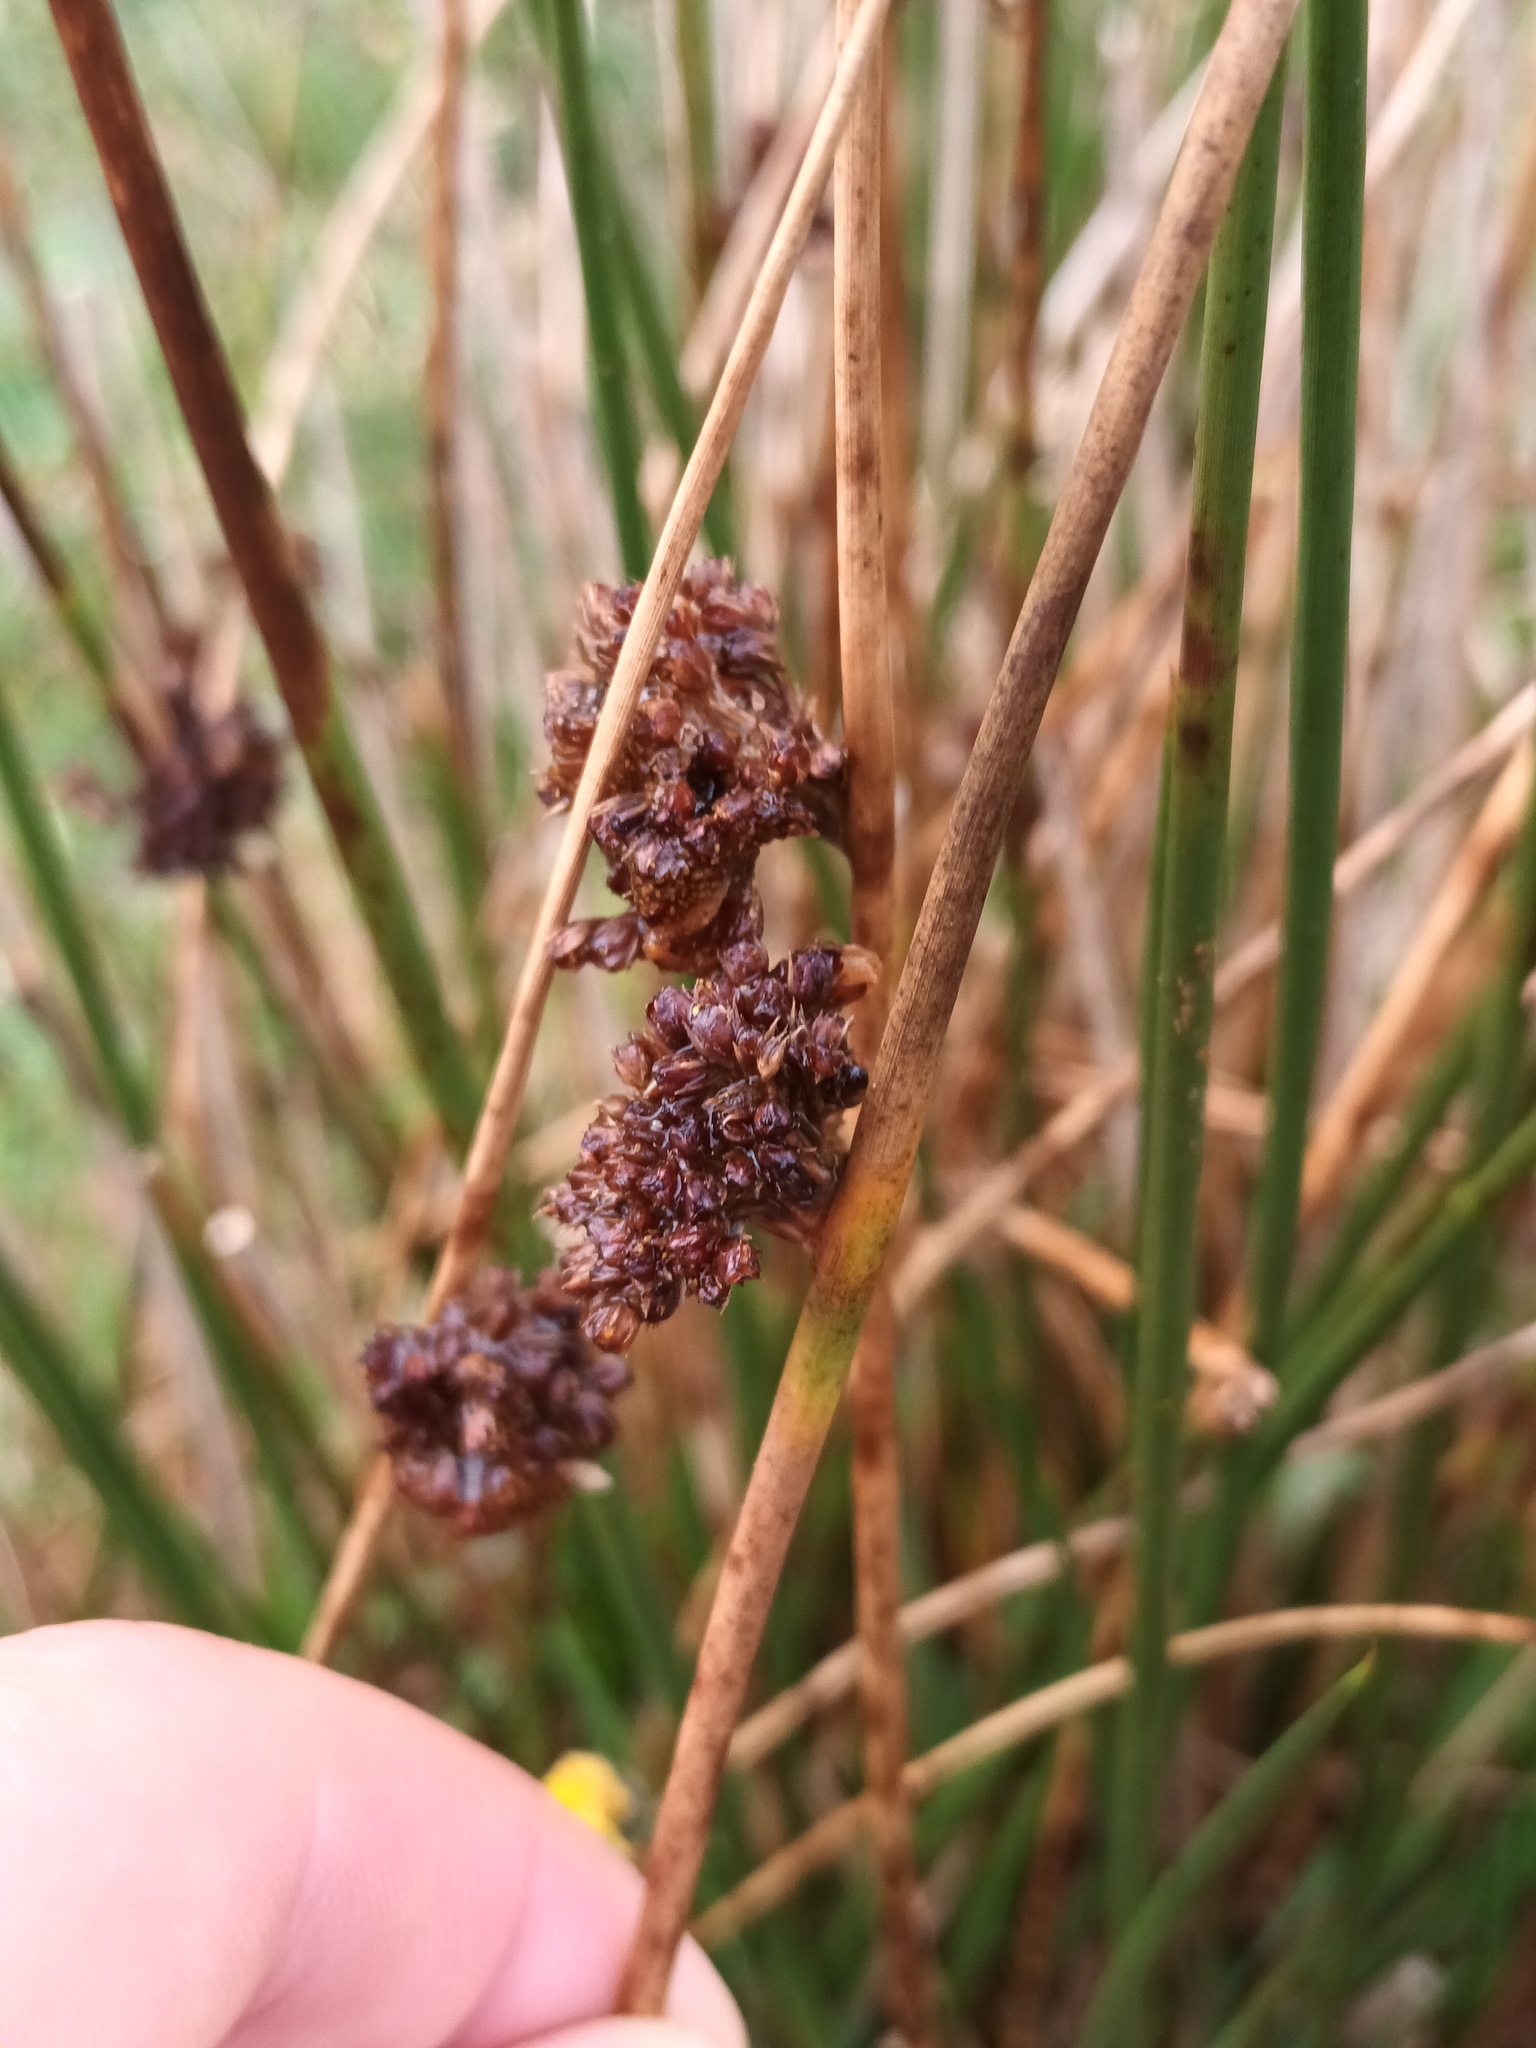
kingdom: Plantae
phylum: Tracheophyta
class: Liliopsida
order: Poales
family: Juncaceae
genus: Juncus
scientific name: Juncus conglomeratus
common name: Compact rush
